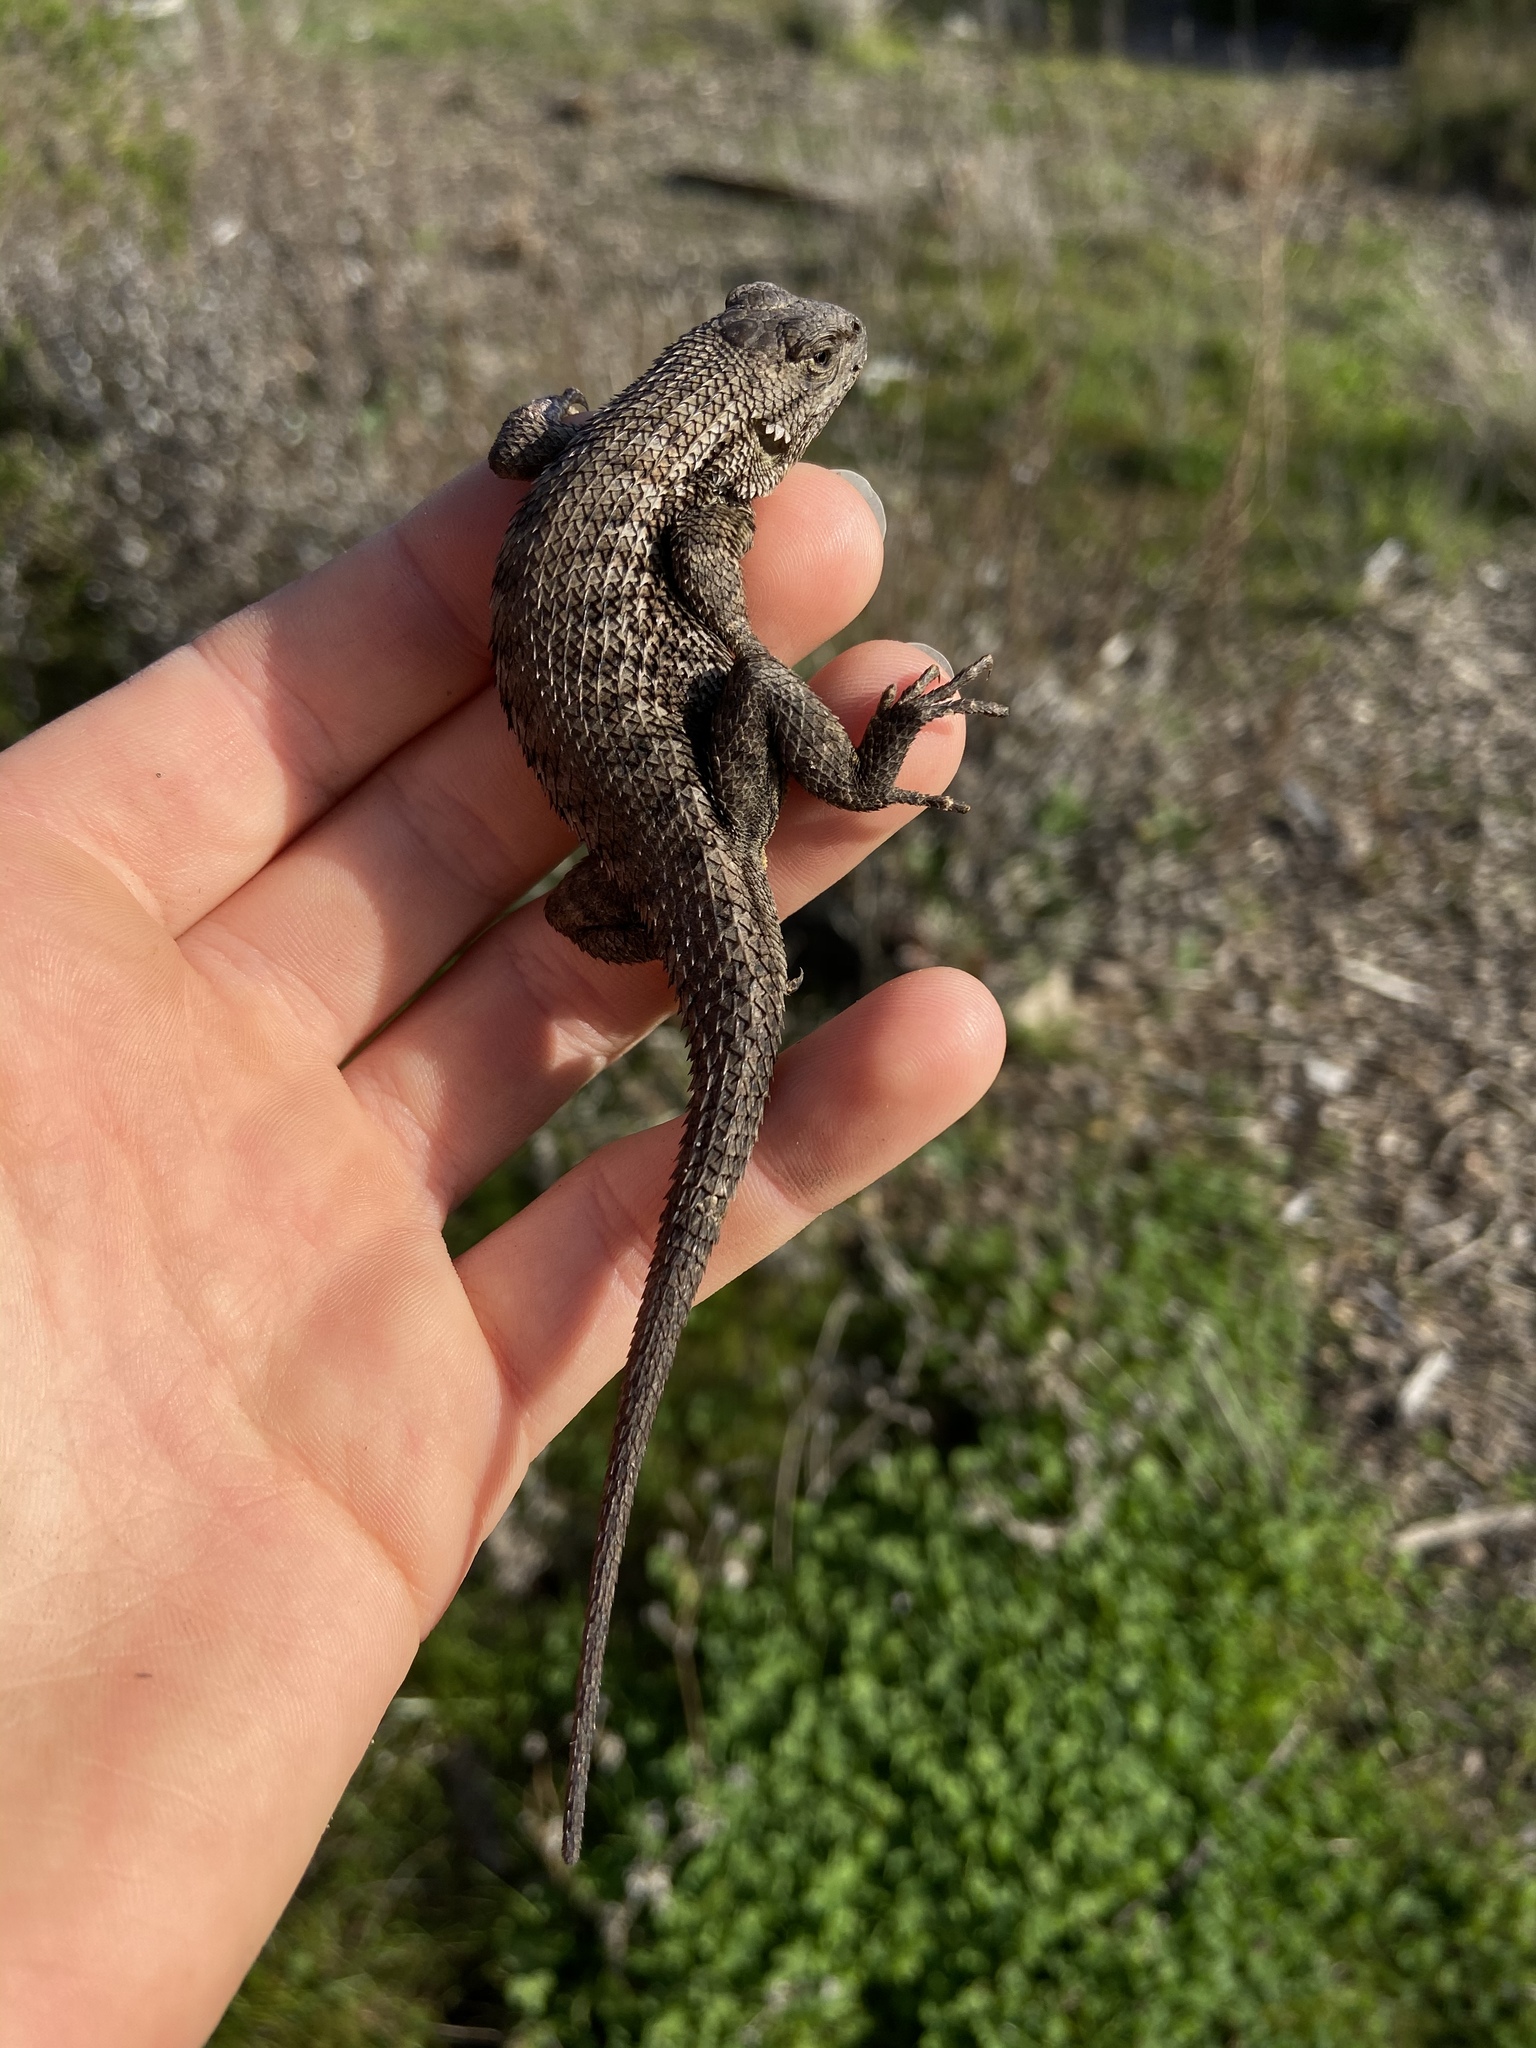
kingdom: Animalia
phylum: Chordata
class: Squamata
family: Phrynosomatidae
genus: Sceloporus
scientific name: Sceloporus occidentalis
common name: Western fence lizard
